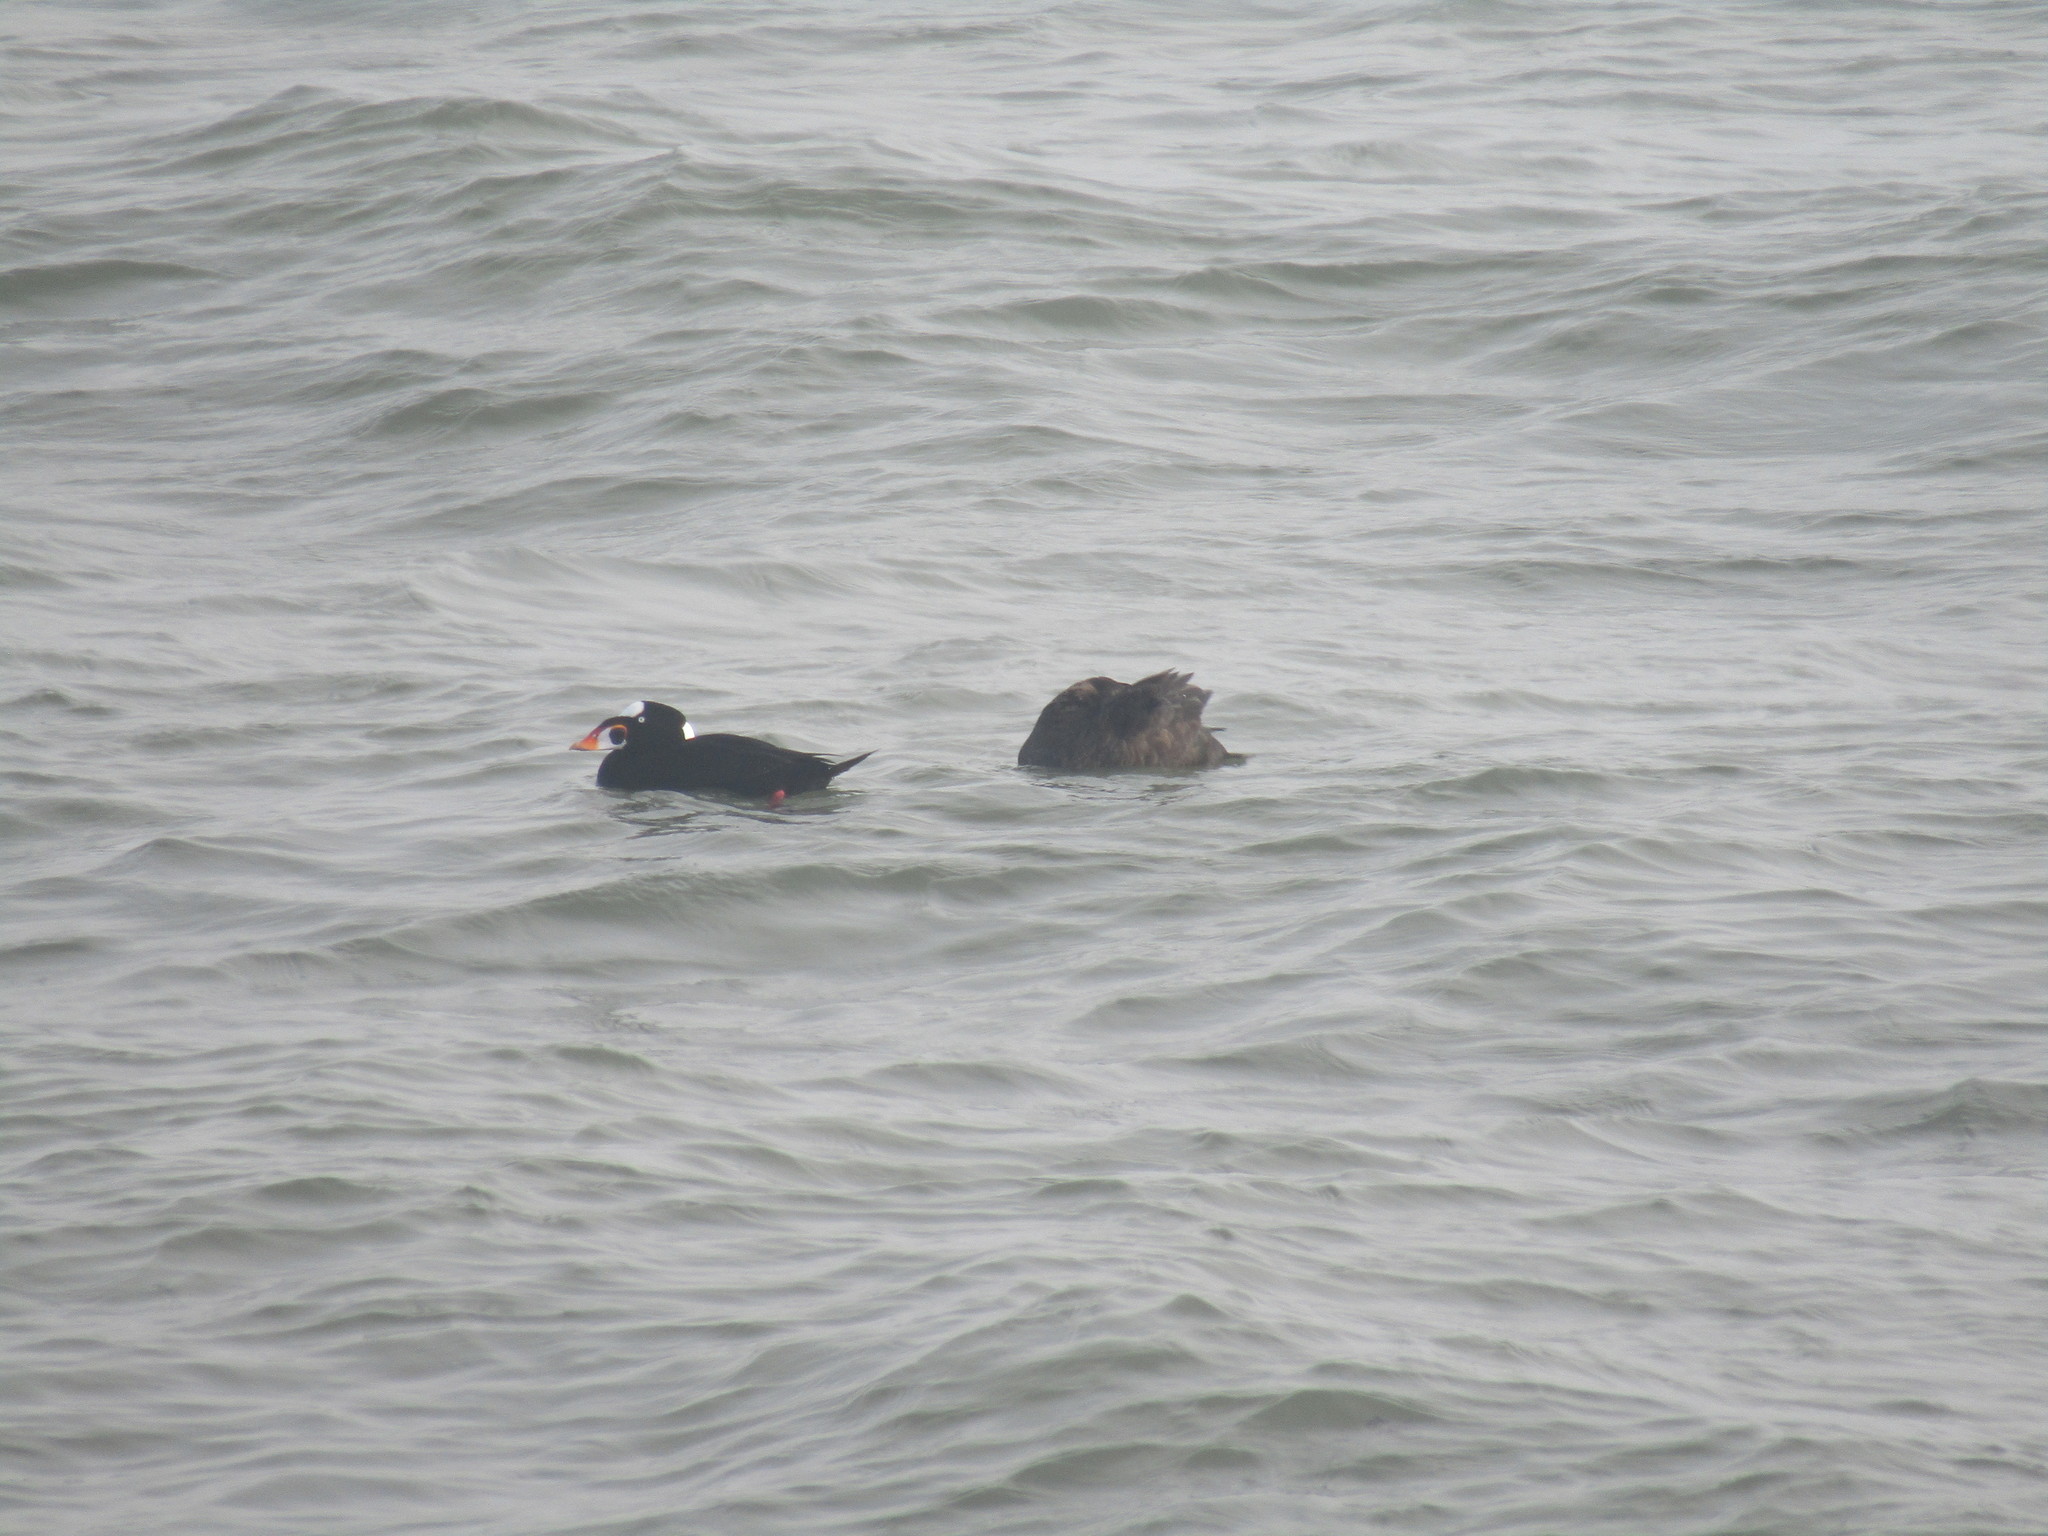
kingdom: Animalia
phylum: Chordata
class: Aves
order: Anseriformes
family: Anatidae
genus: Melanitta
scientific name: Melanitta perspicillata
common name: Surf scoter
